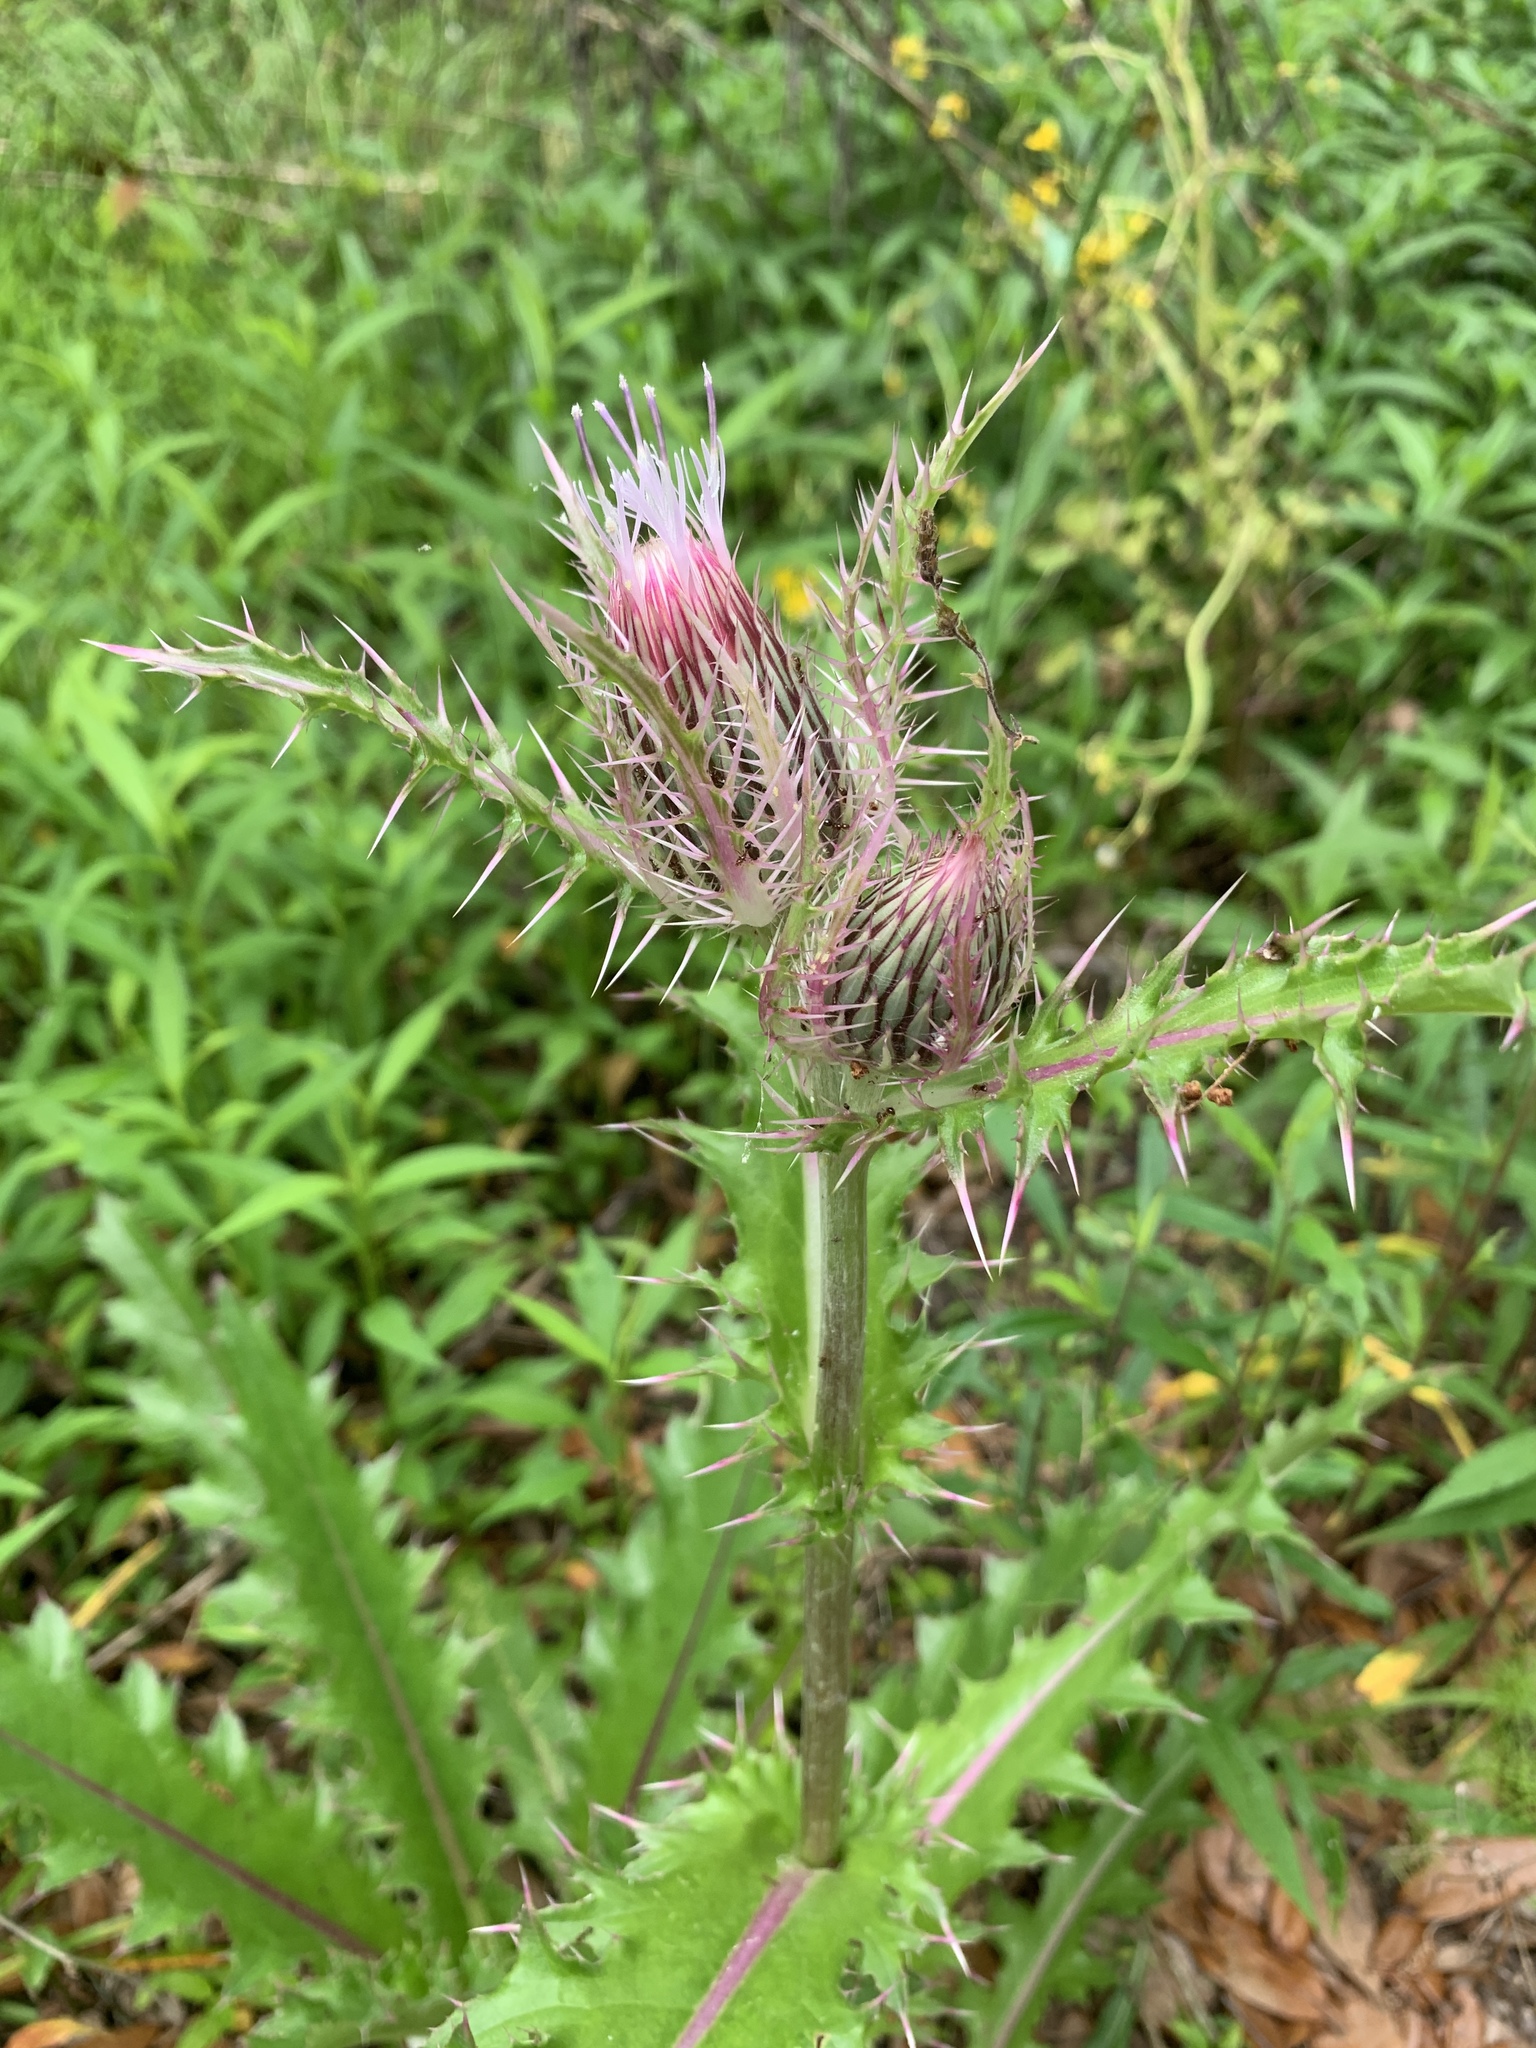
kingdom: Plantae
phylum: Tracheophyta
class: Magnoliopsida
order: Asterales
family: Asteraceae
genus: Cirsium
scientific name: Cirsium horridulum
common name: Bristly thistle
